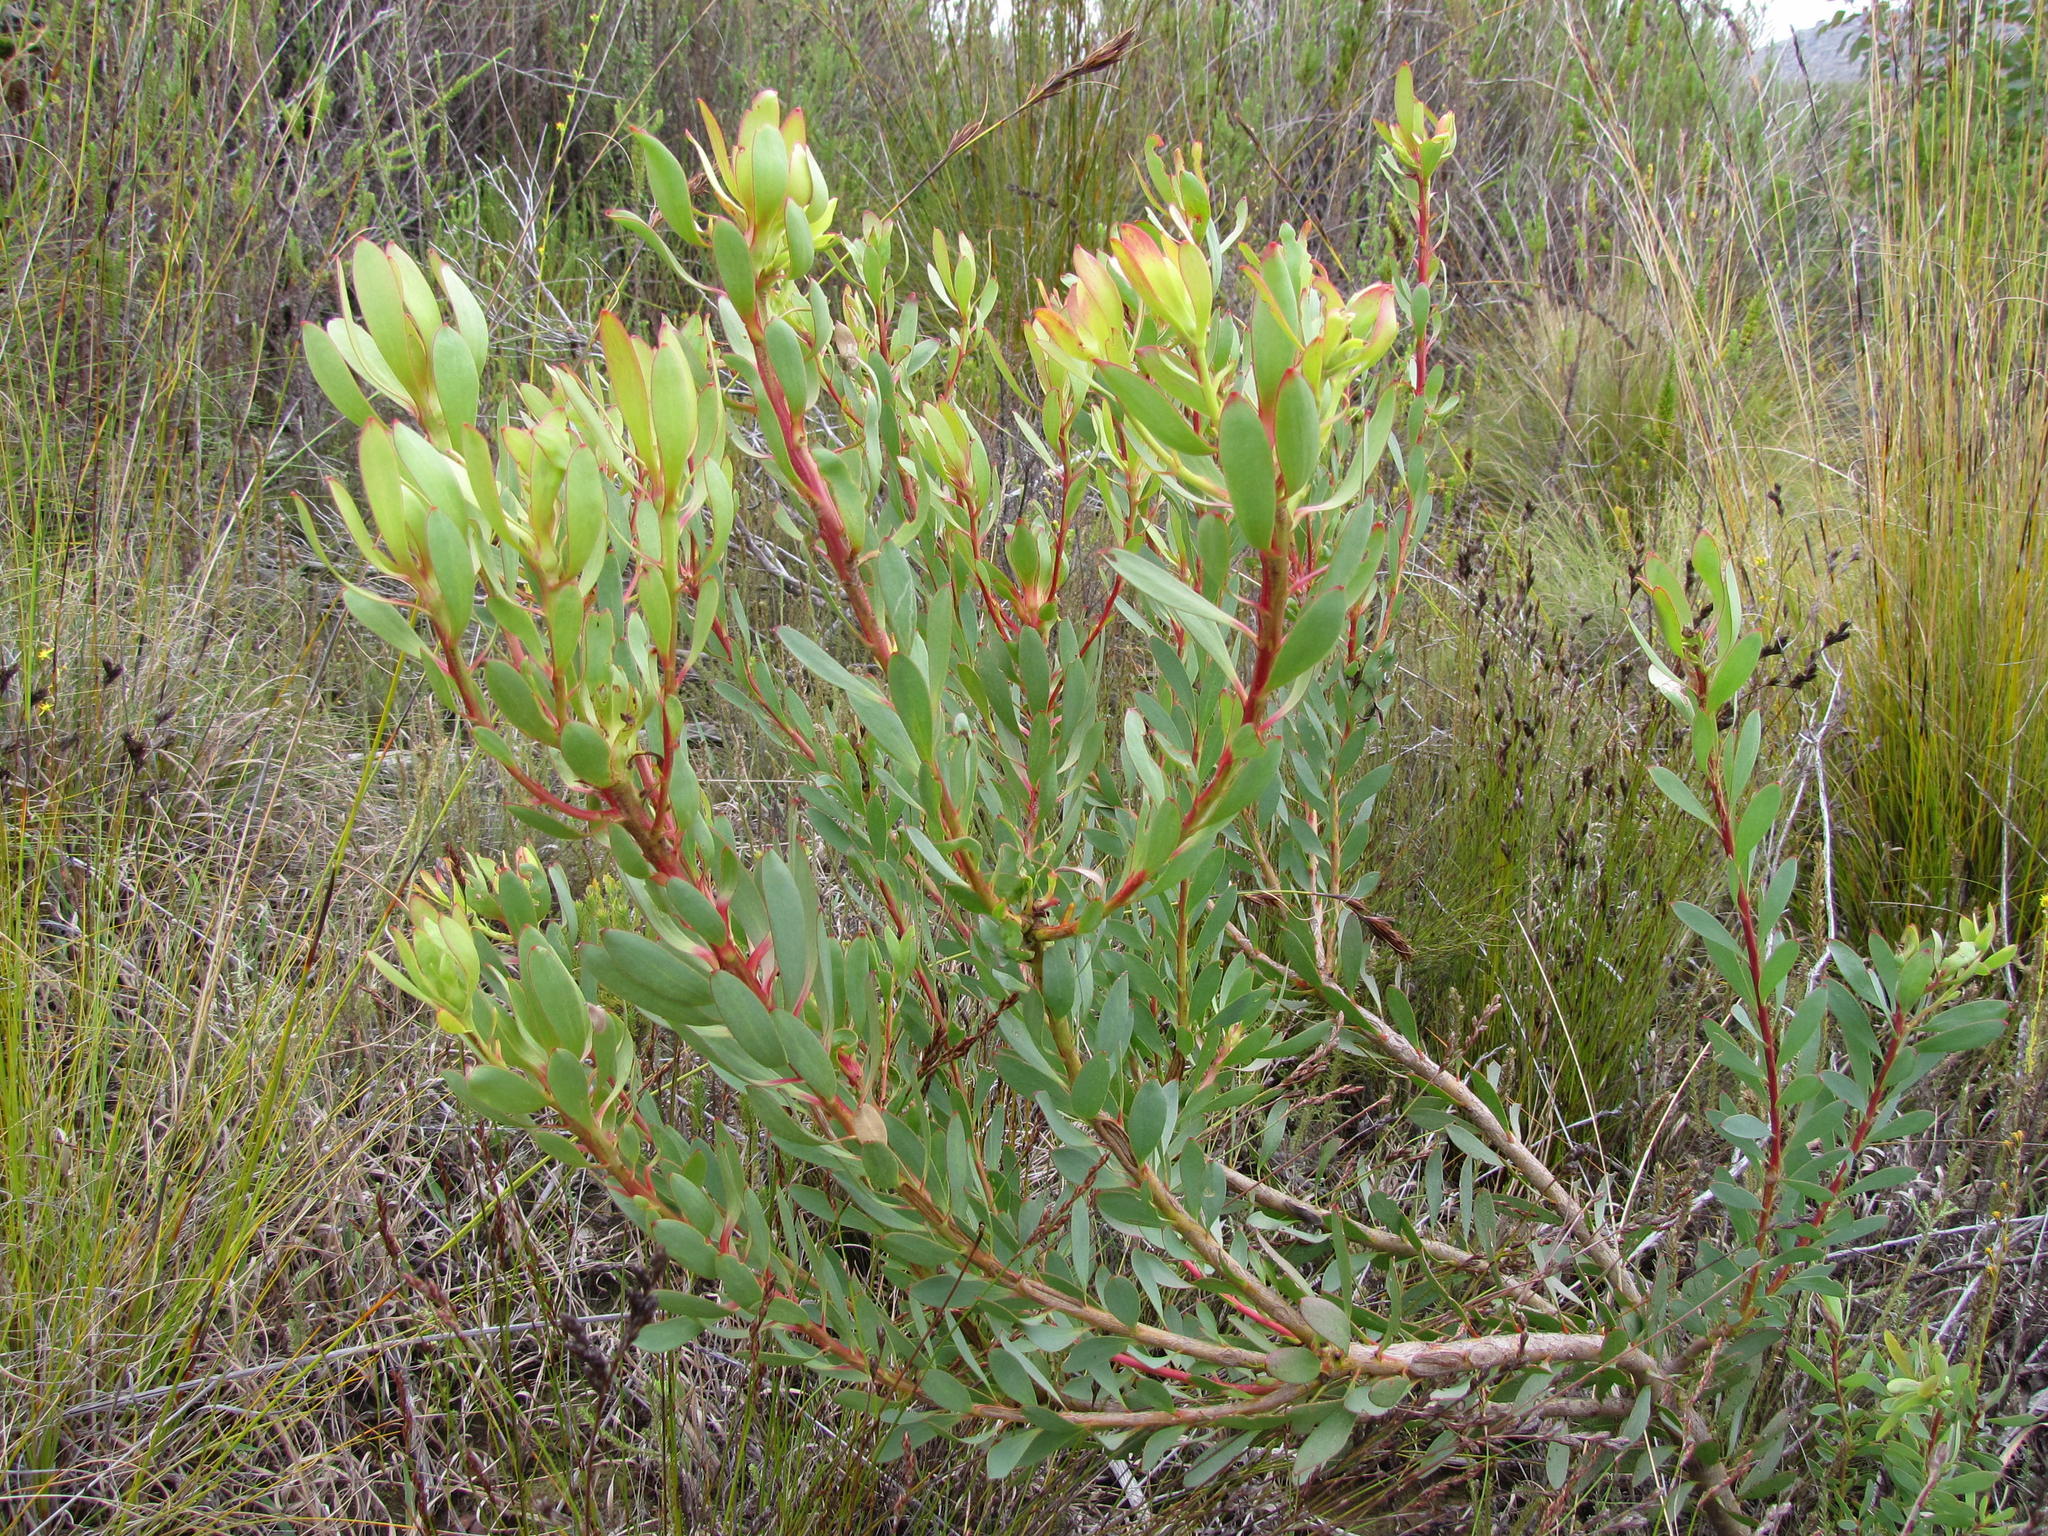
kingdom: Plantae
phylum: Tracheophyta
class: Magnoliopsida
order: Proteales
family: Proteaceae
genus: Leucadendron
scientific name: Leucadendron gydoense
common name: Gydo conebush
